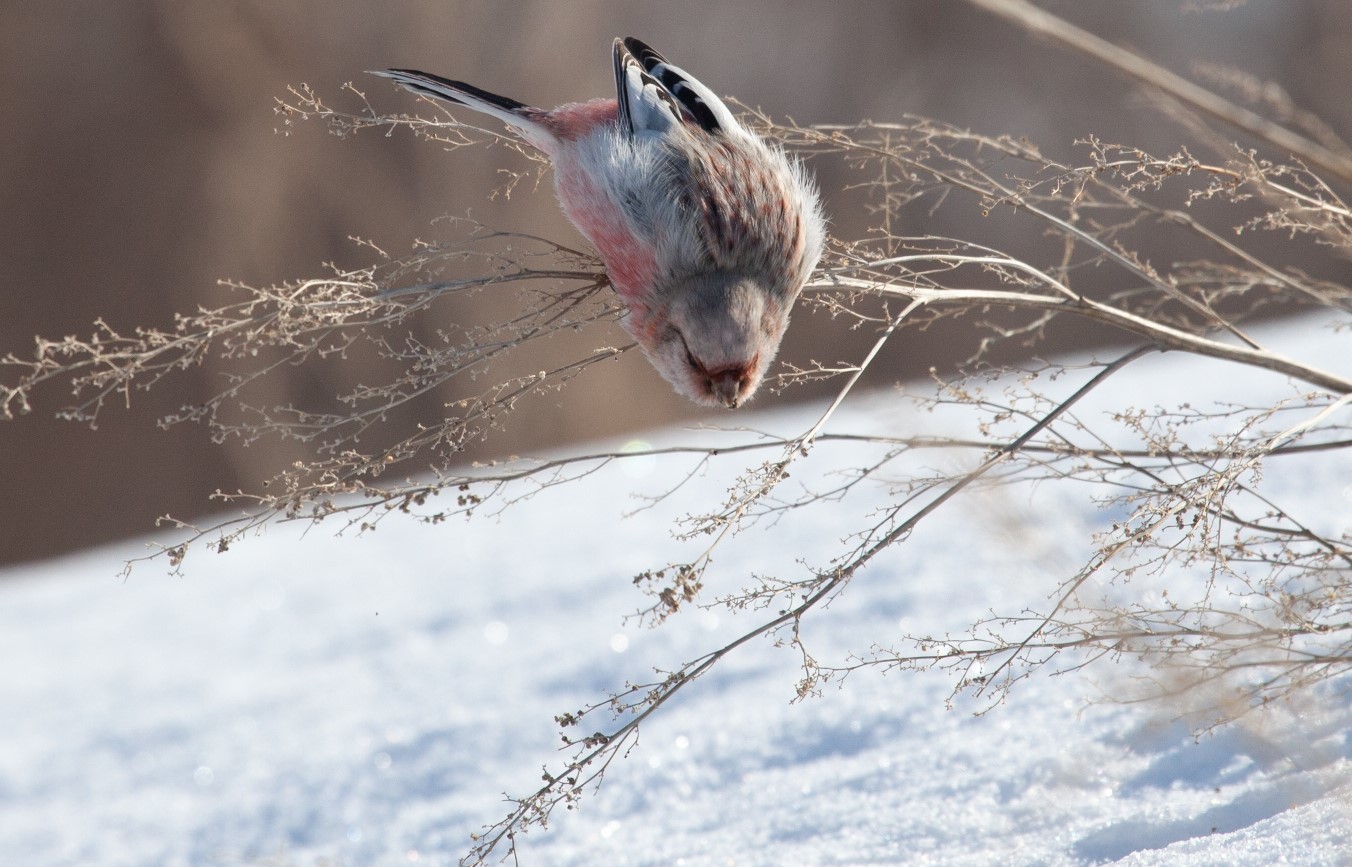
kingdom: Animalia
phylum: Chordata
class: Aves
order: Passeriformes
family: Fringillidae
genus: Carpodacus
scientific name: Carpodacus sibiricus
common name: Long-tailed rosefinch
